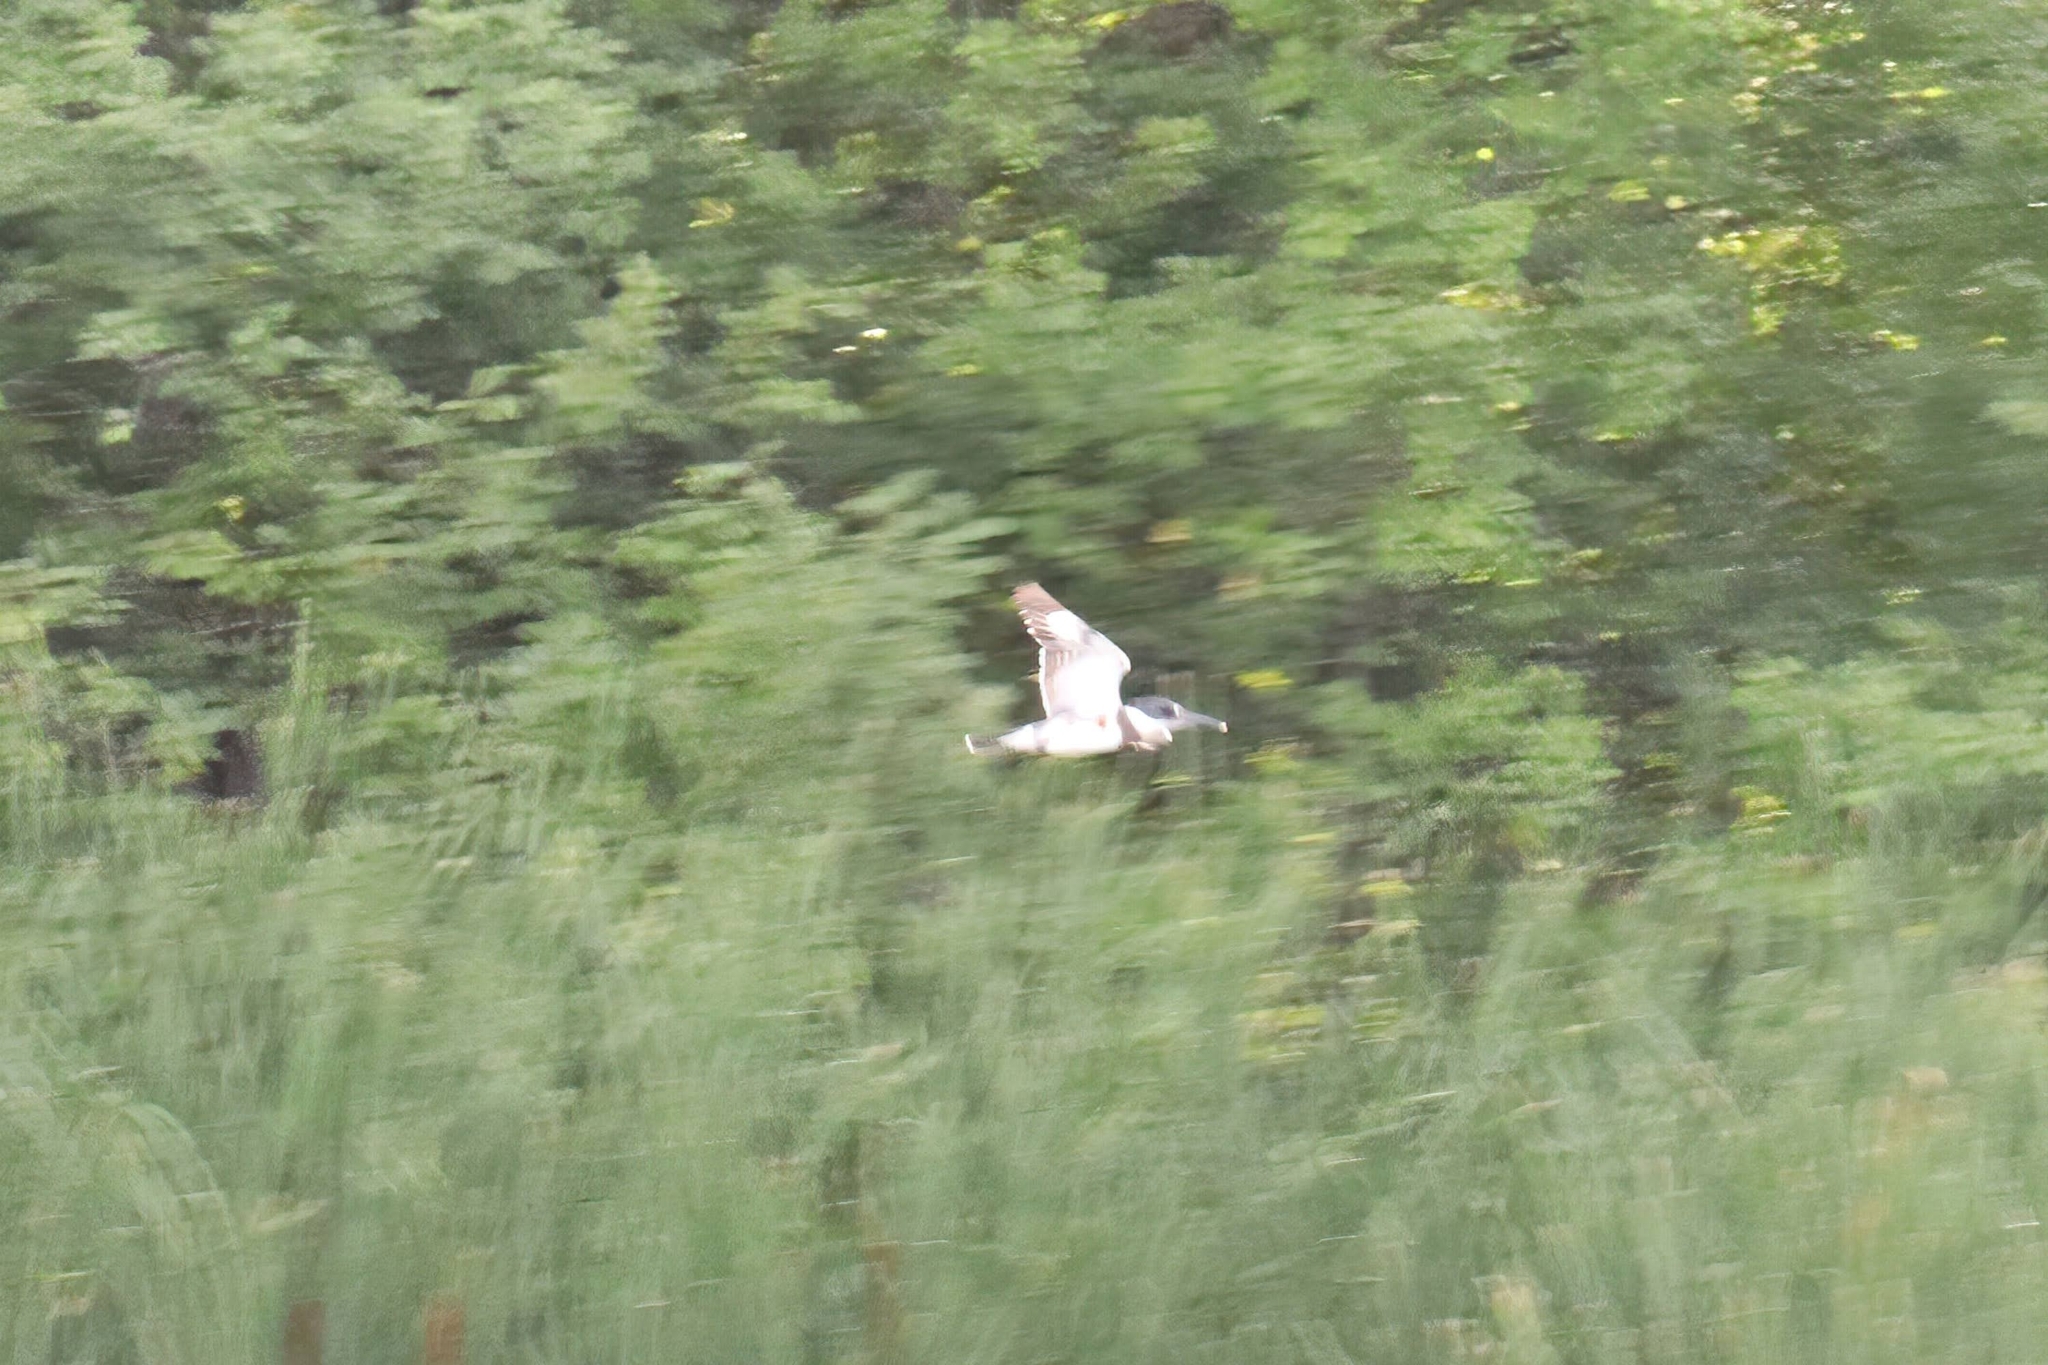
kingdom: Animalia
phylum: Chordata
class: Aves
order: Coraciiformes
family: Alcedinidae
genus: Megaceryle
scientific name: Megaceryle alcyon
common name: Belted kingfisher
